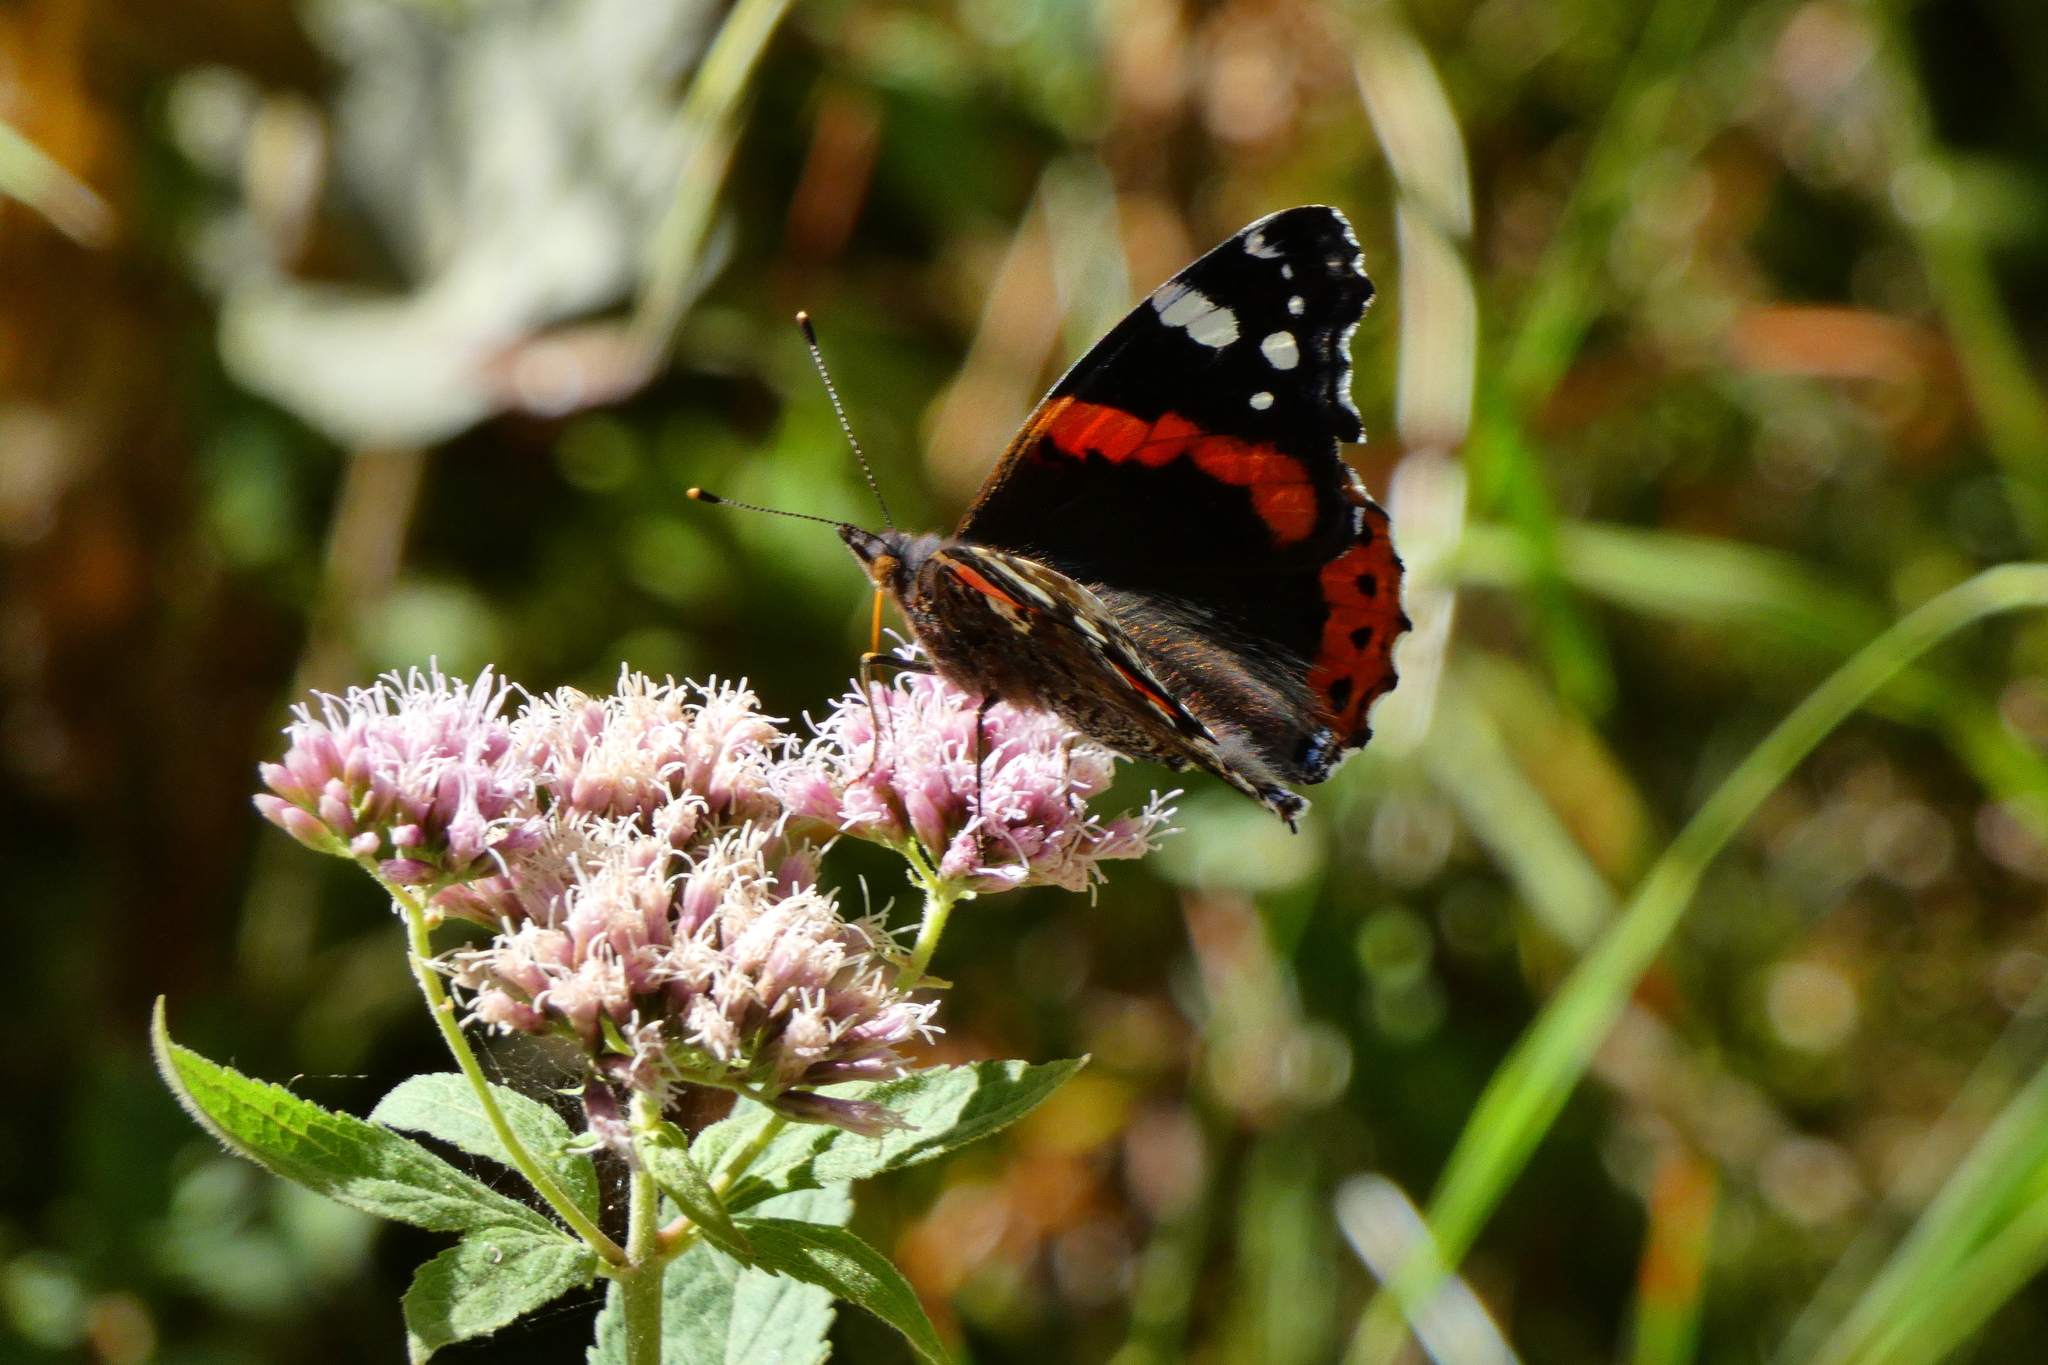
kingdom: Animalia
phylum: Arthropoda
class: Insecta
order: Lepidoptera
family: Nymphalidae
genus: Vanessa
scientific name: Vanessa atalanta
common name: Red admiral
